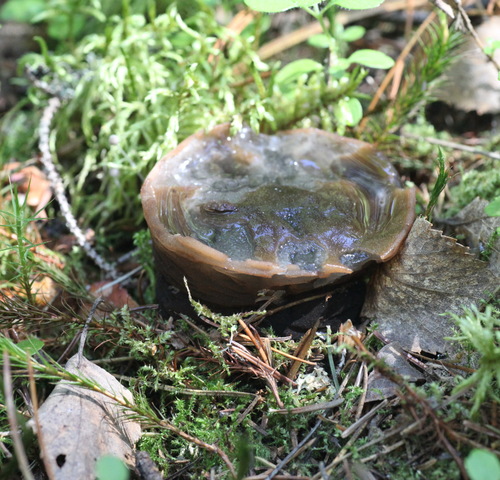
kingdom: Fungi
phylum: Ascomycota
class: Pezizomycetes
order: Pezizales
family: Sarcosomataceae
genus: Sarcosoma
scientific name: Sarcosoma globosum
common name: Charred-pancake cup
